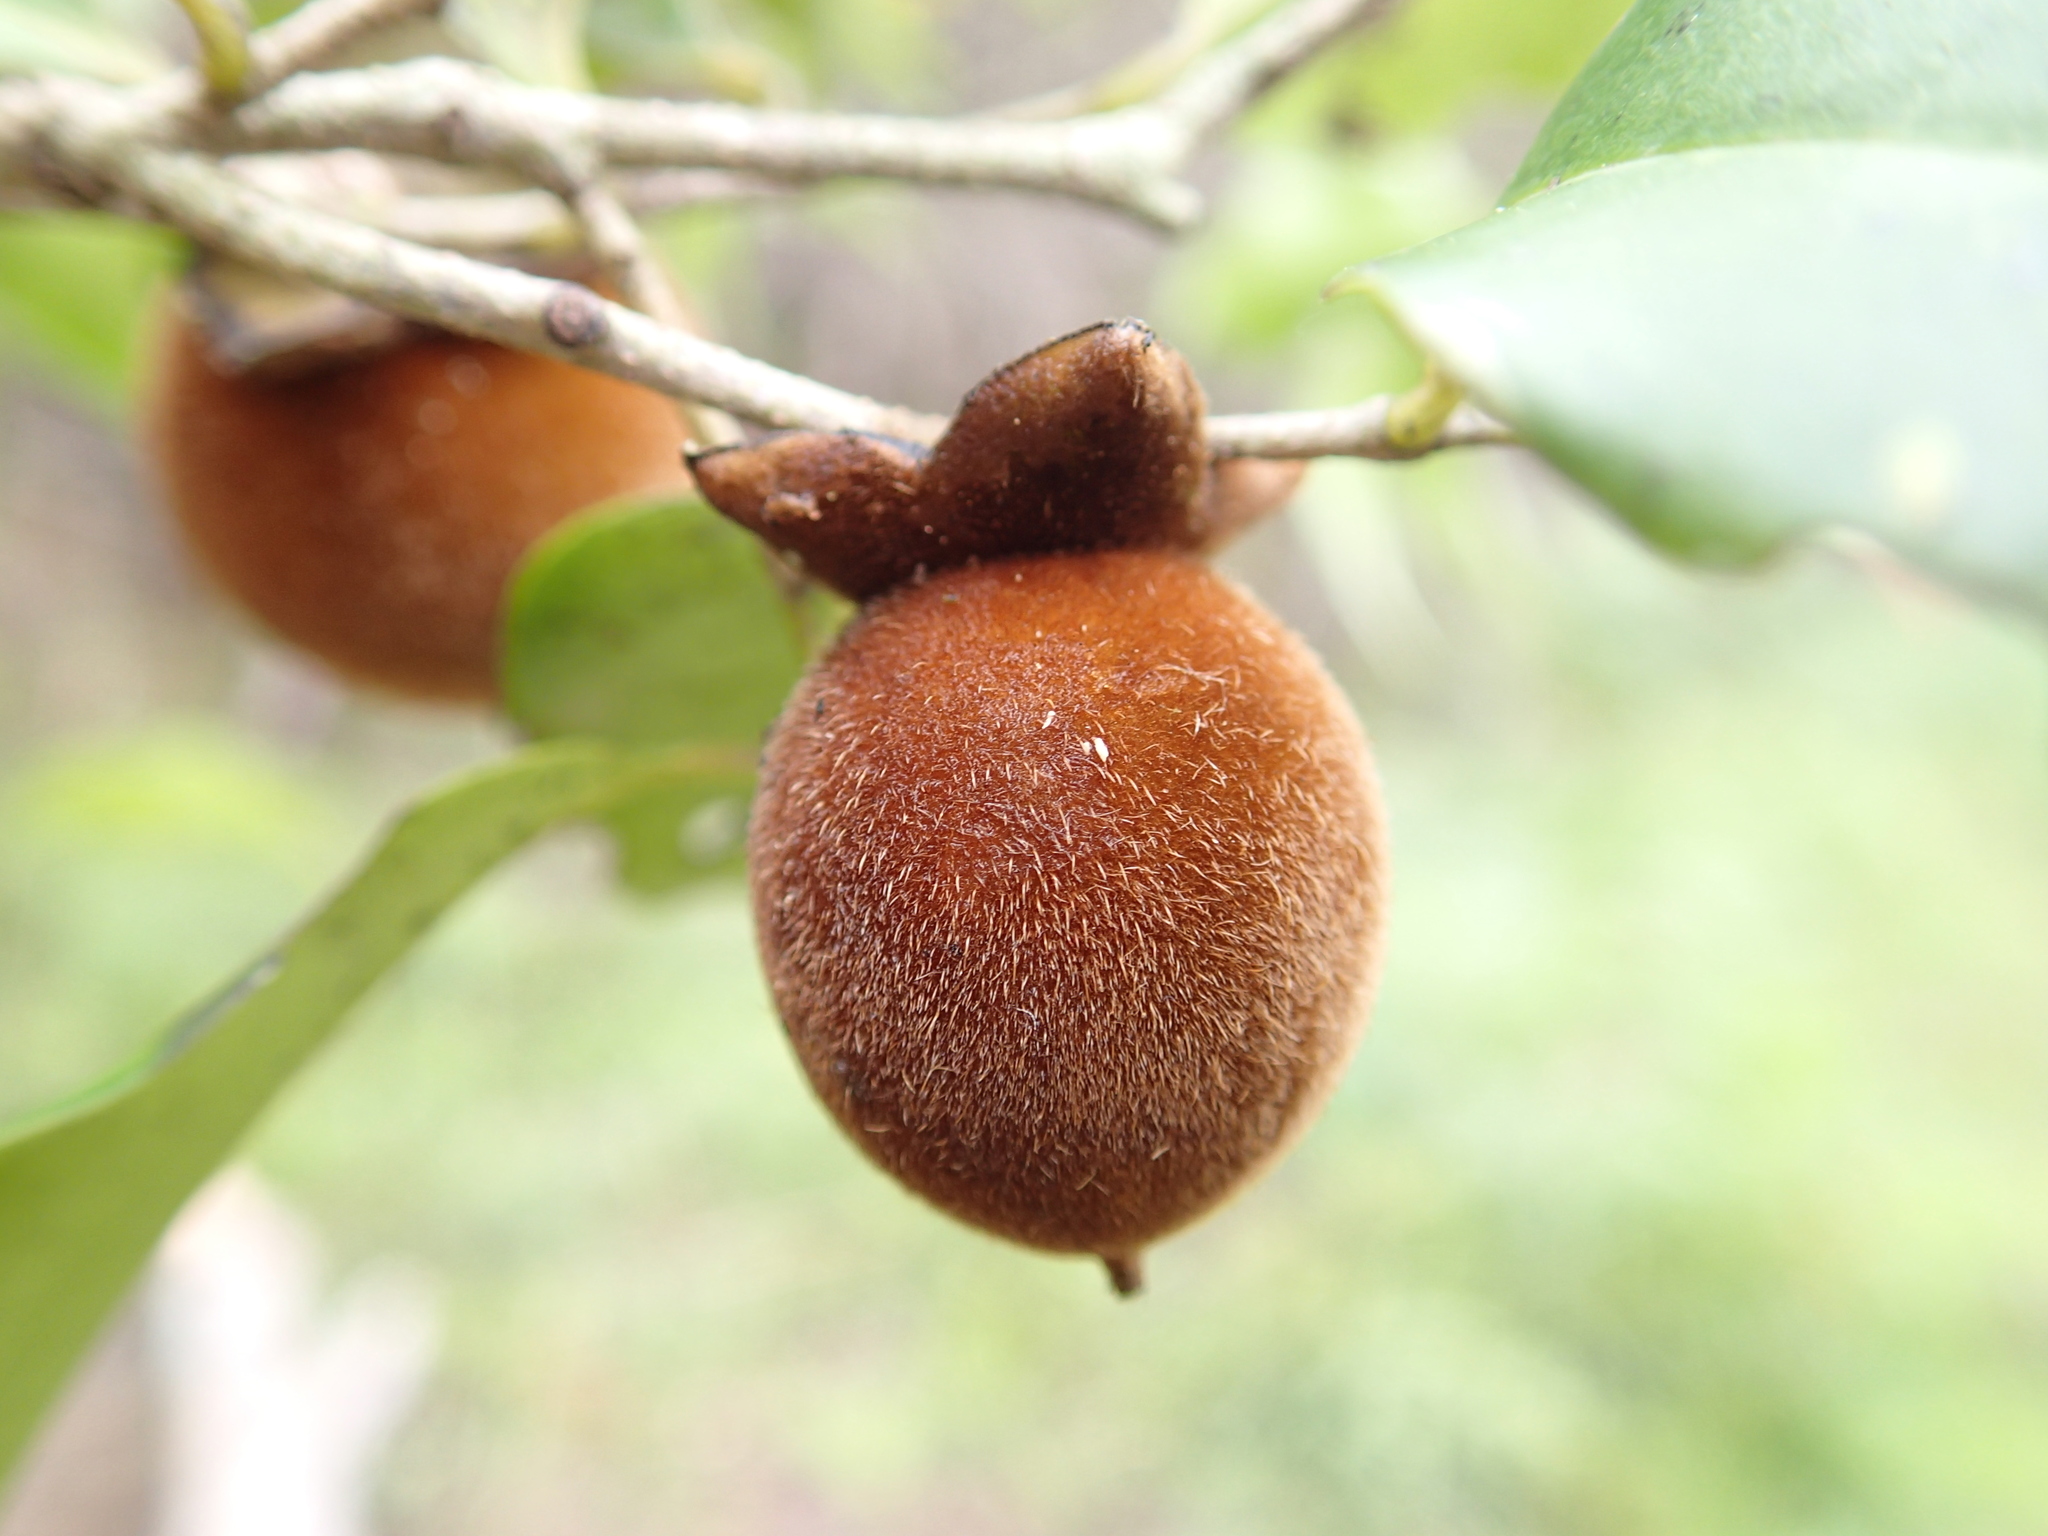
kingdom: Plantae
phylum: Tracheophyta
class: Magnoliopsida
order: Ericales
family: Ebenaceae
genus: Diospyros
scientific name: Diospyros haplostylis
